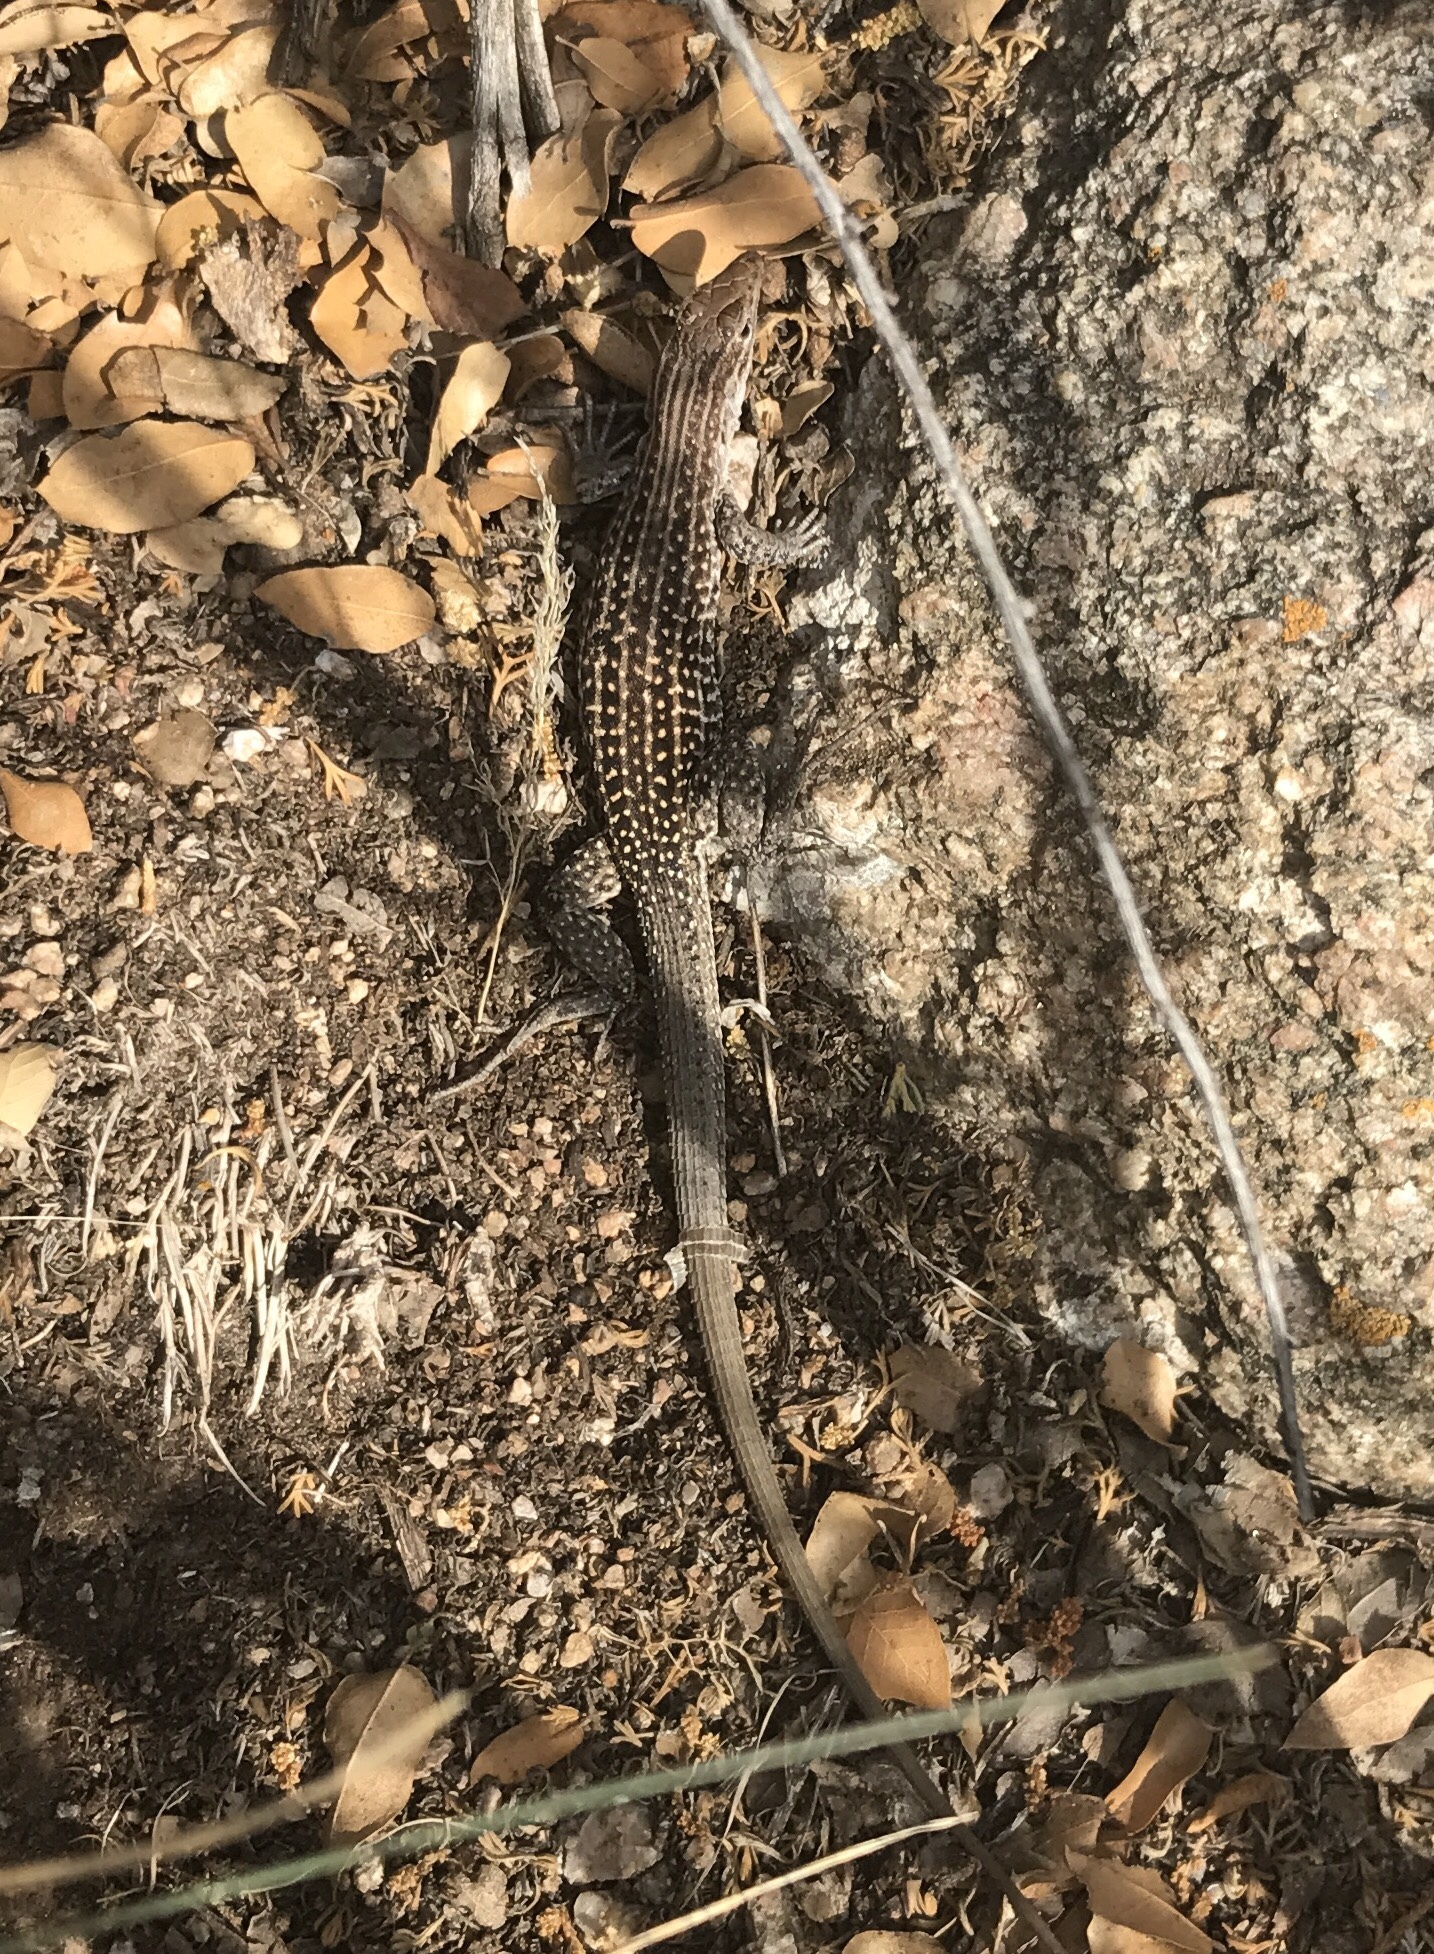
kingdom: Animalia
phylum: Chordata
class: Squamata
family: Teiidae
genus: Aspidoscelis
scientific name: Aspidoscelis exsanguis
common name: Chihuahuan spotted whiptail
